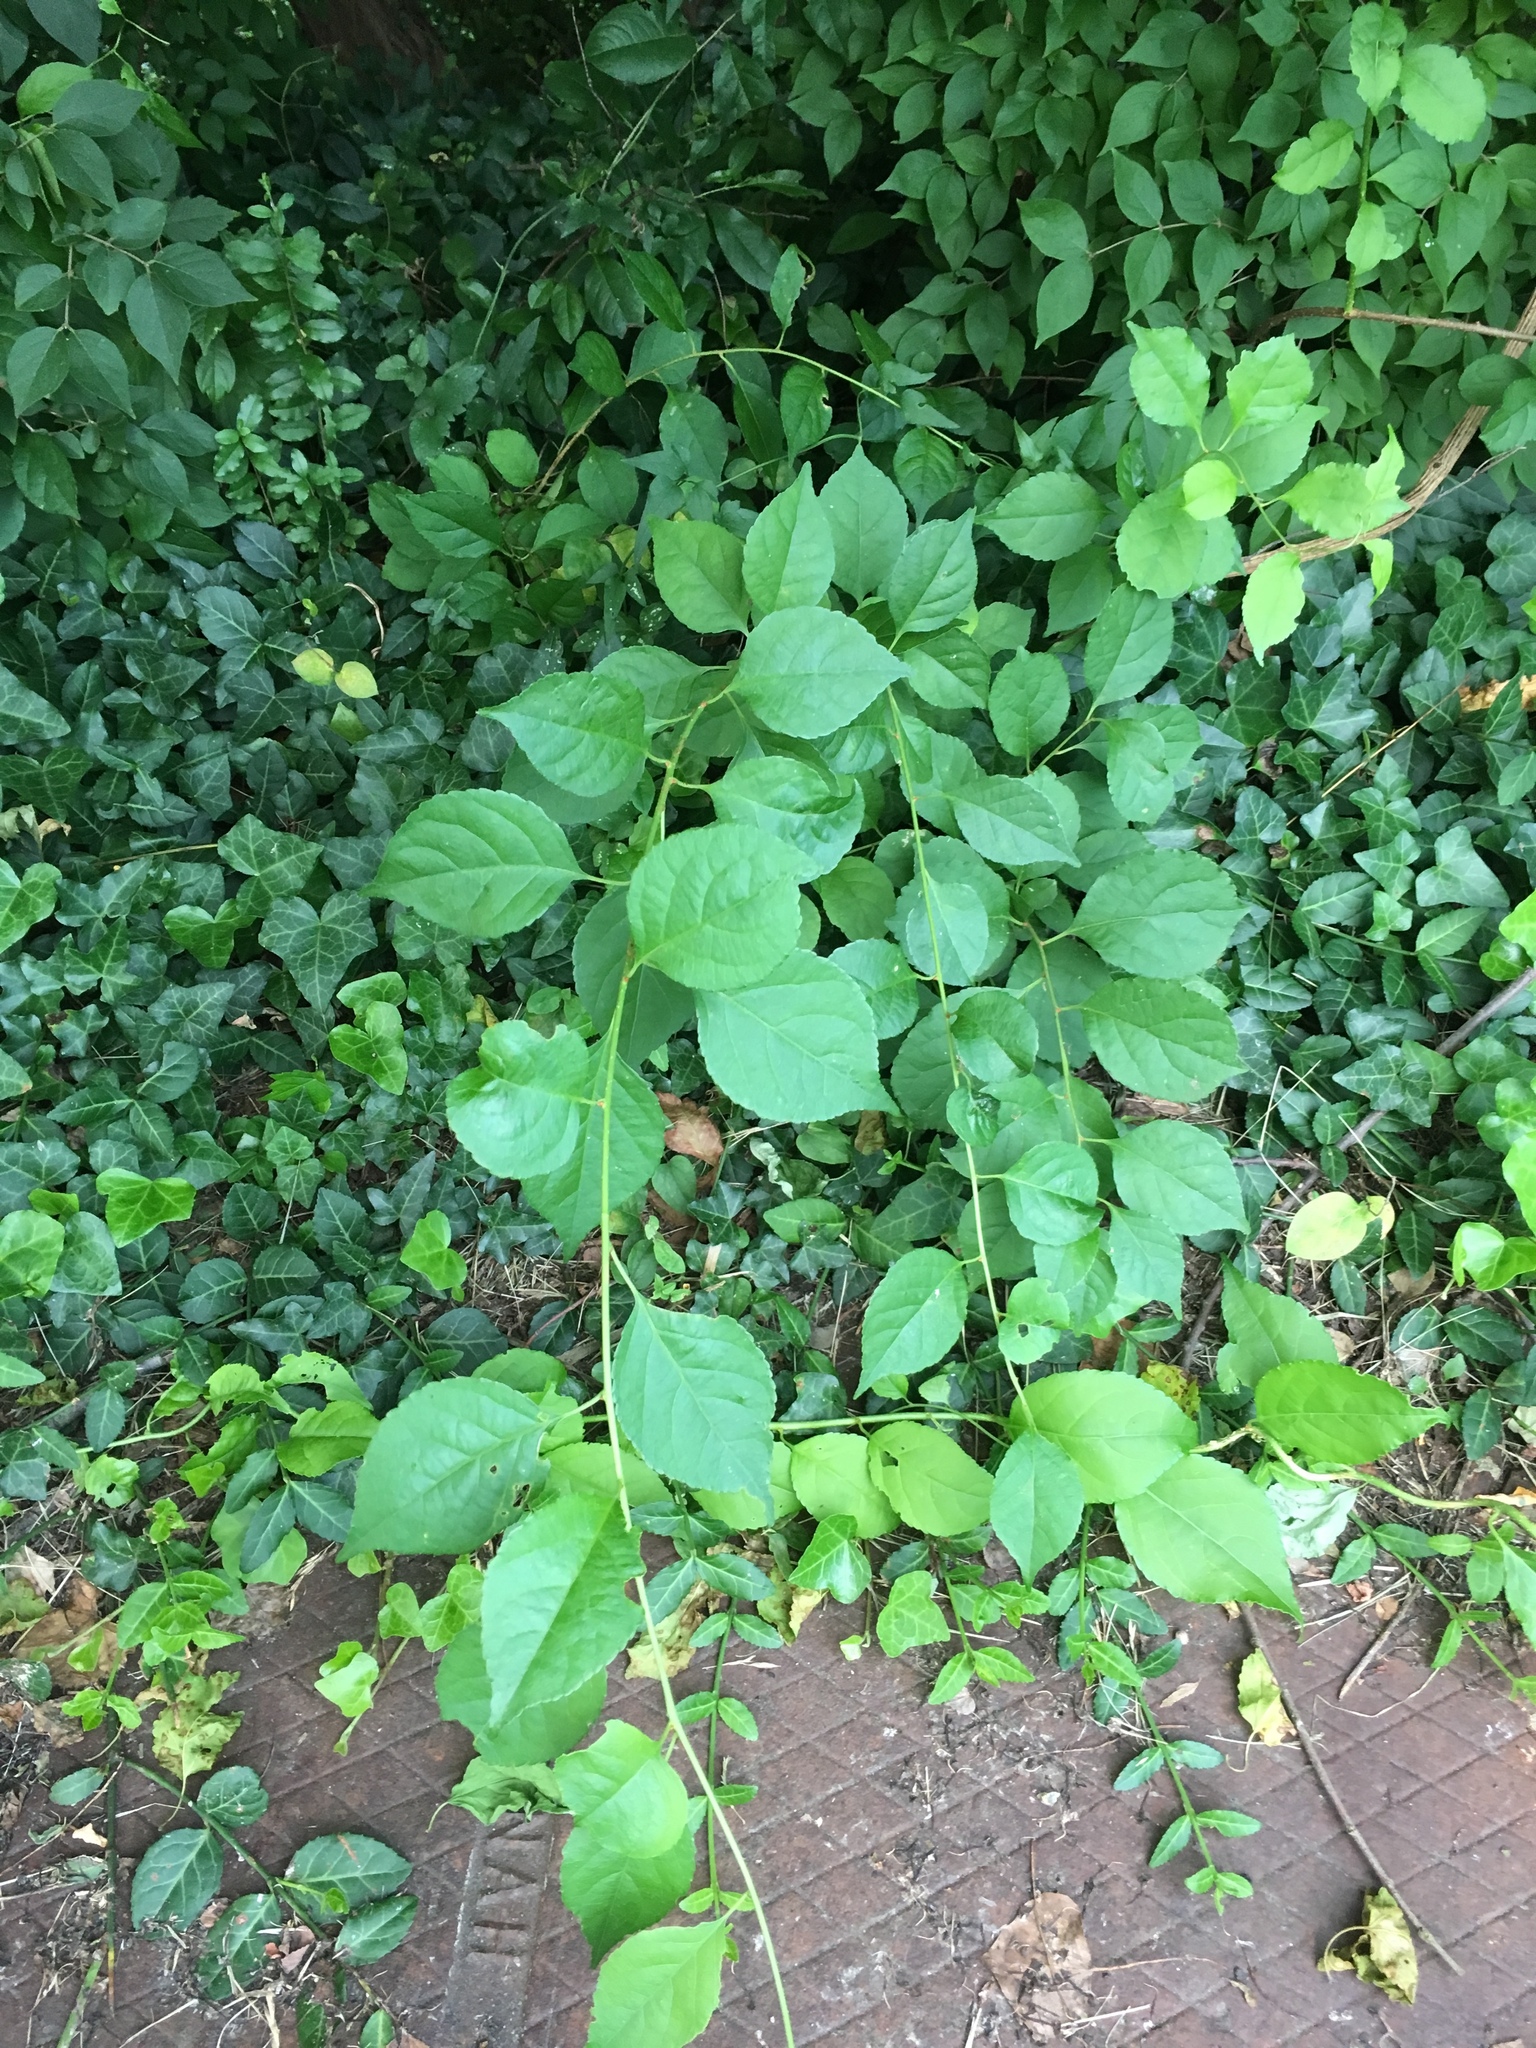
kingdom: Plantae
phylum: Tracheophyta
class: Magnoliopsida
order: Celastrales
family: Celastraceae
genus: Celastrus
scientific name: Celastrus orbiculatus
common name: Oriental bittersweet
